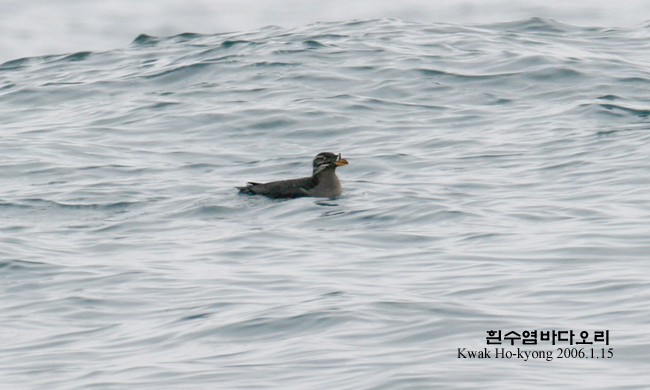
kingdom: Animalia
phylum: Chordata
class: Aves
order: Charadriiformes
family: Alcidae
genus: Cerorhinca
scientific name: Cerorhinca monocerata
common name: Rhinoceros auklet
